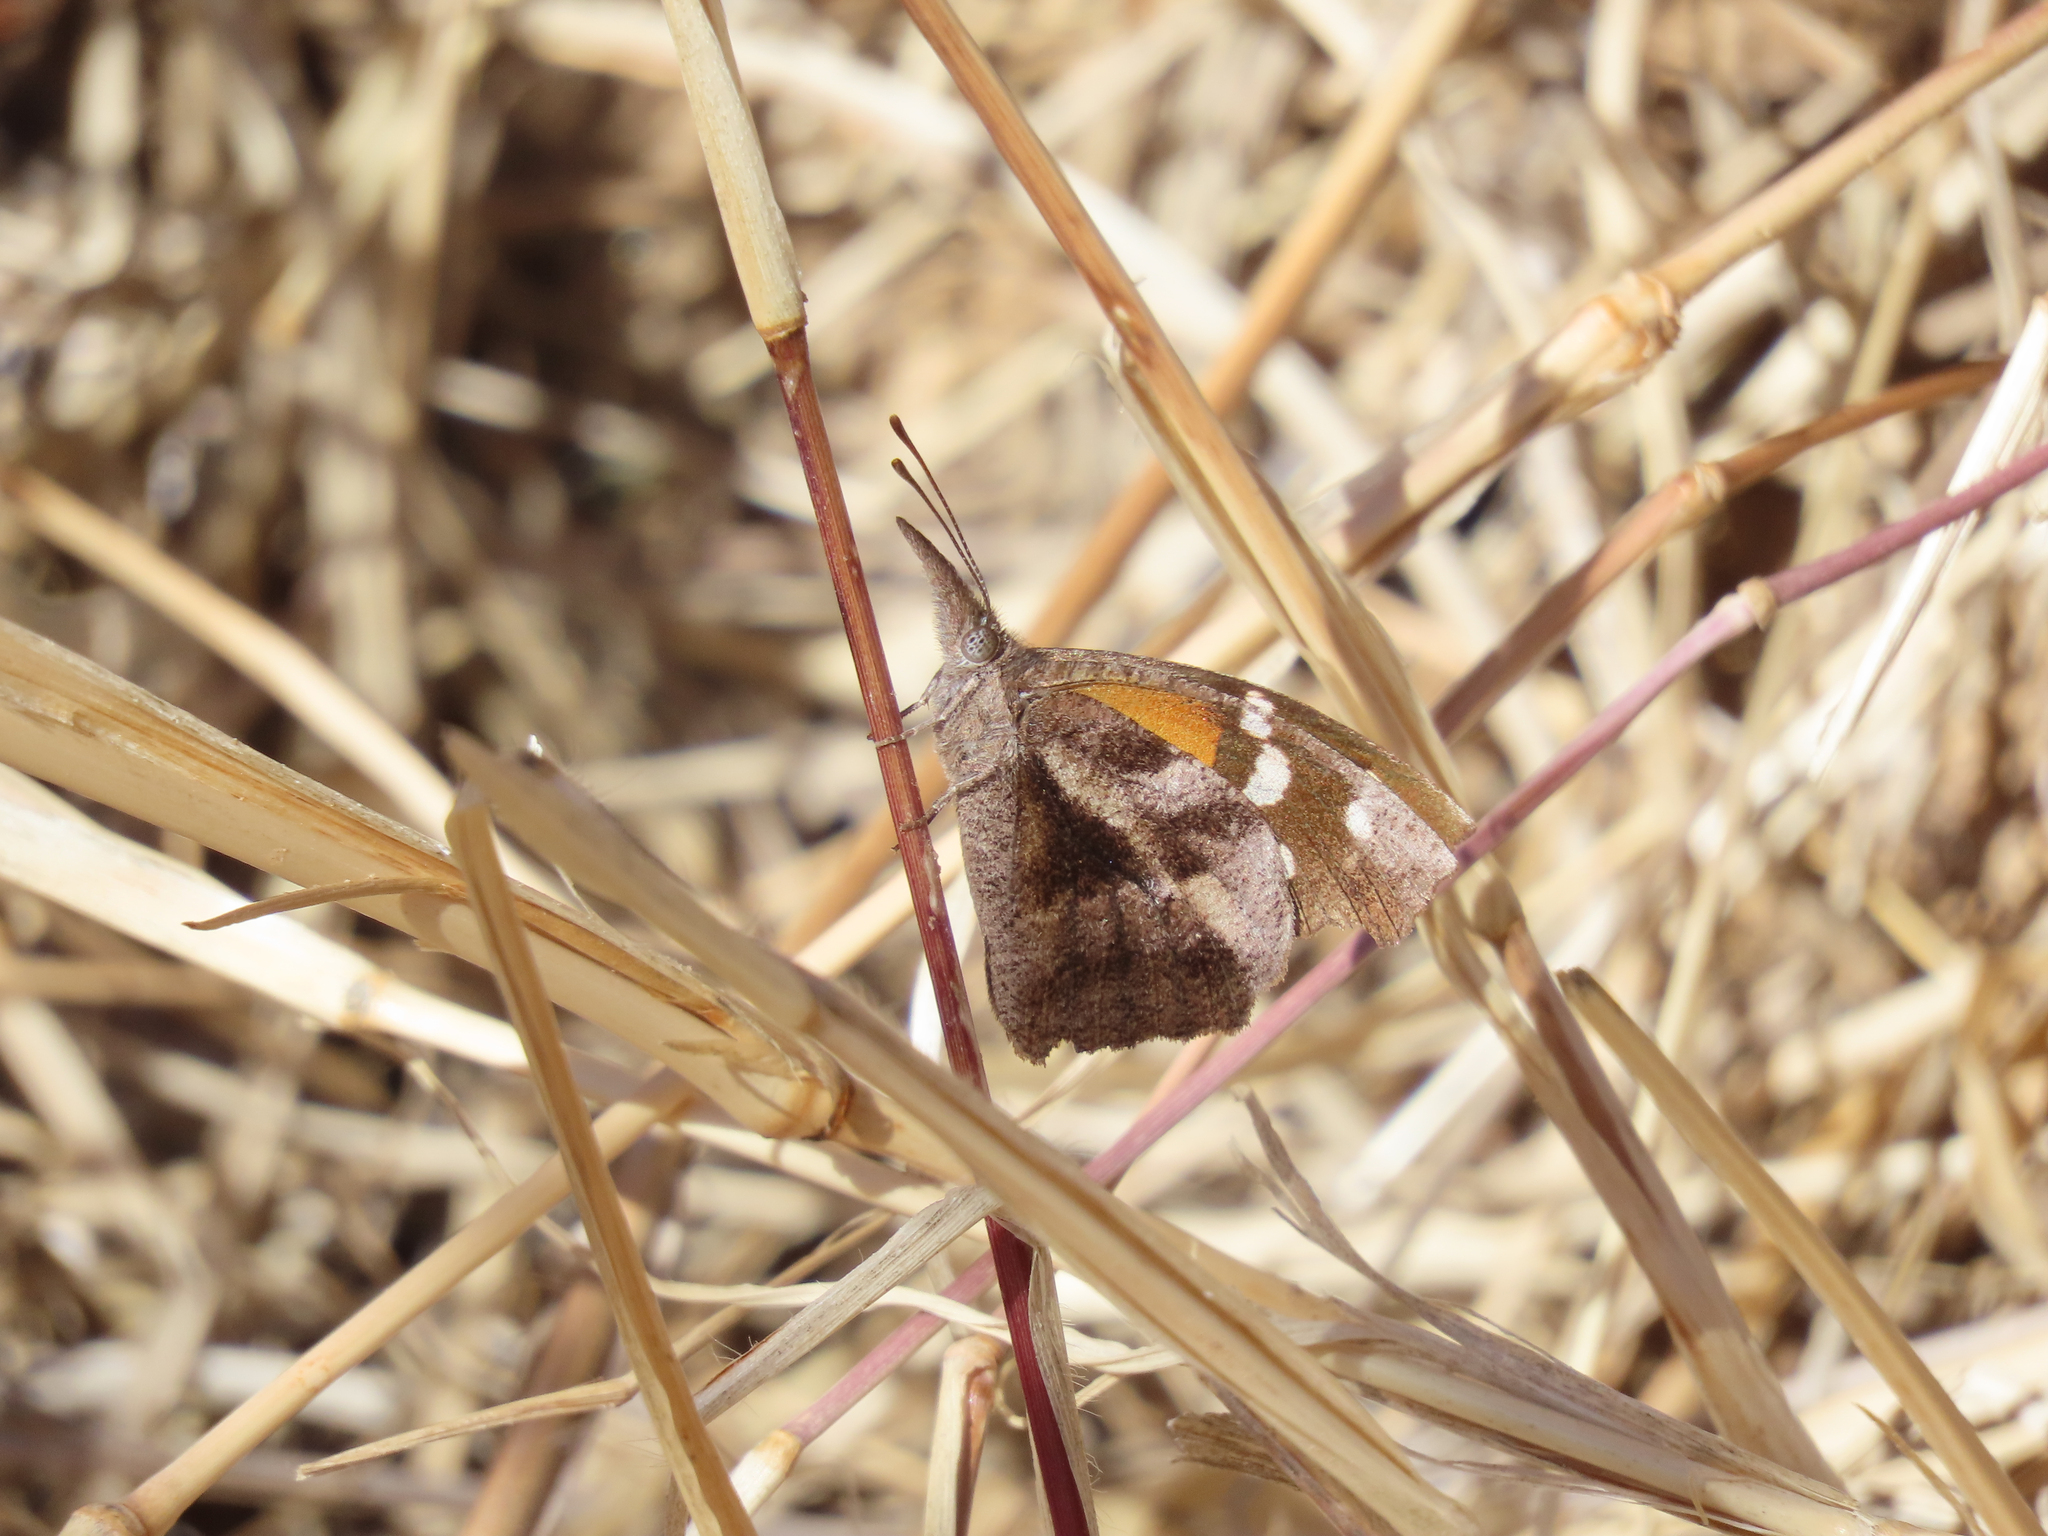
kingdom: Animalia
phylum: Arthropoda
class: Insecta
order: Lepidoptera
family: Nymphalidae
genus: Libytheana
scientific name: Libytheana carinenta
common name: American snout
